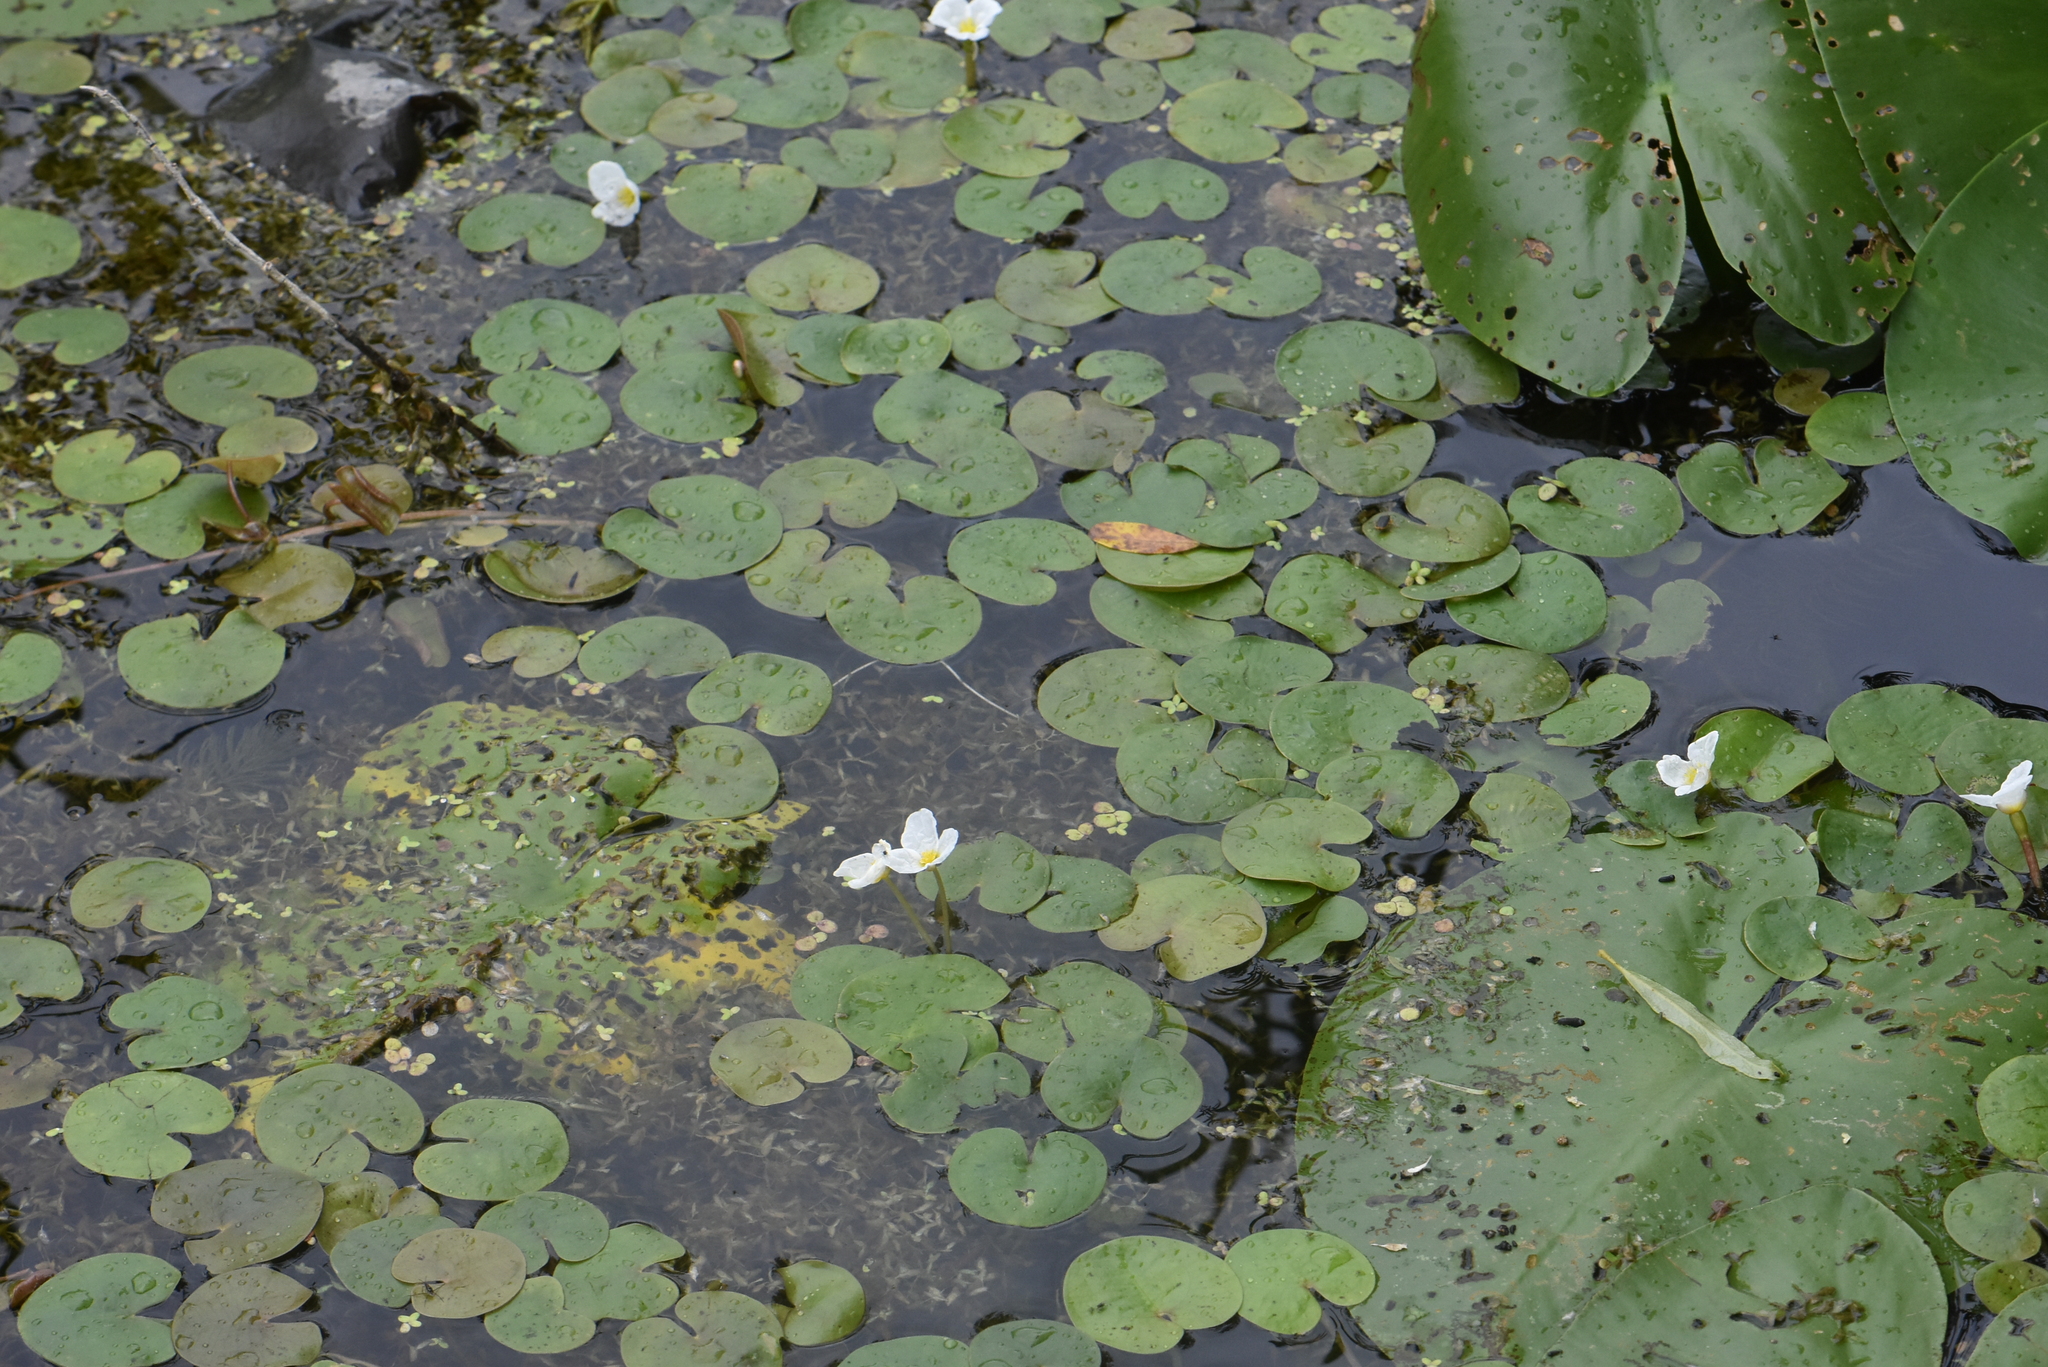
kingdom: Plantae
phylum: Tracheophyta
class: Liliopsida
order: Alismatales
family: Hydrocharitaceae
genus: Hydrocharis
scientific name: Hydrocharis morsus-ranae
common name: Frogbit
